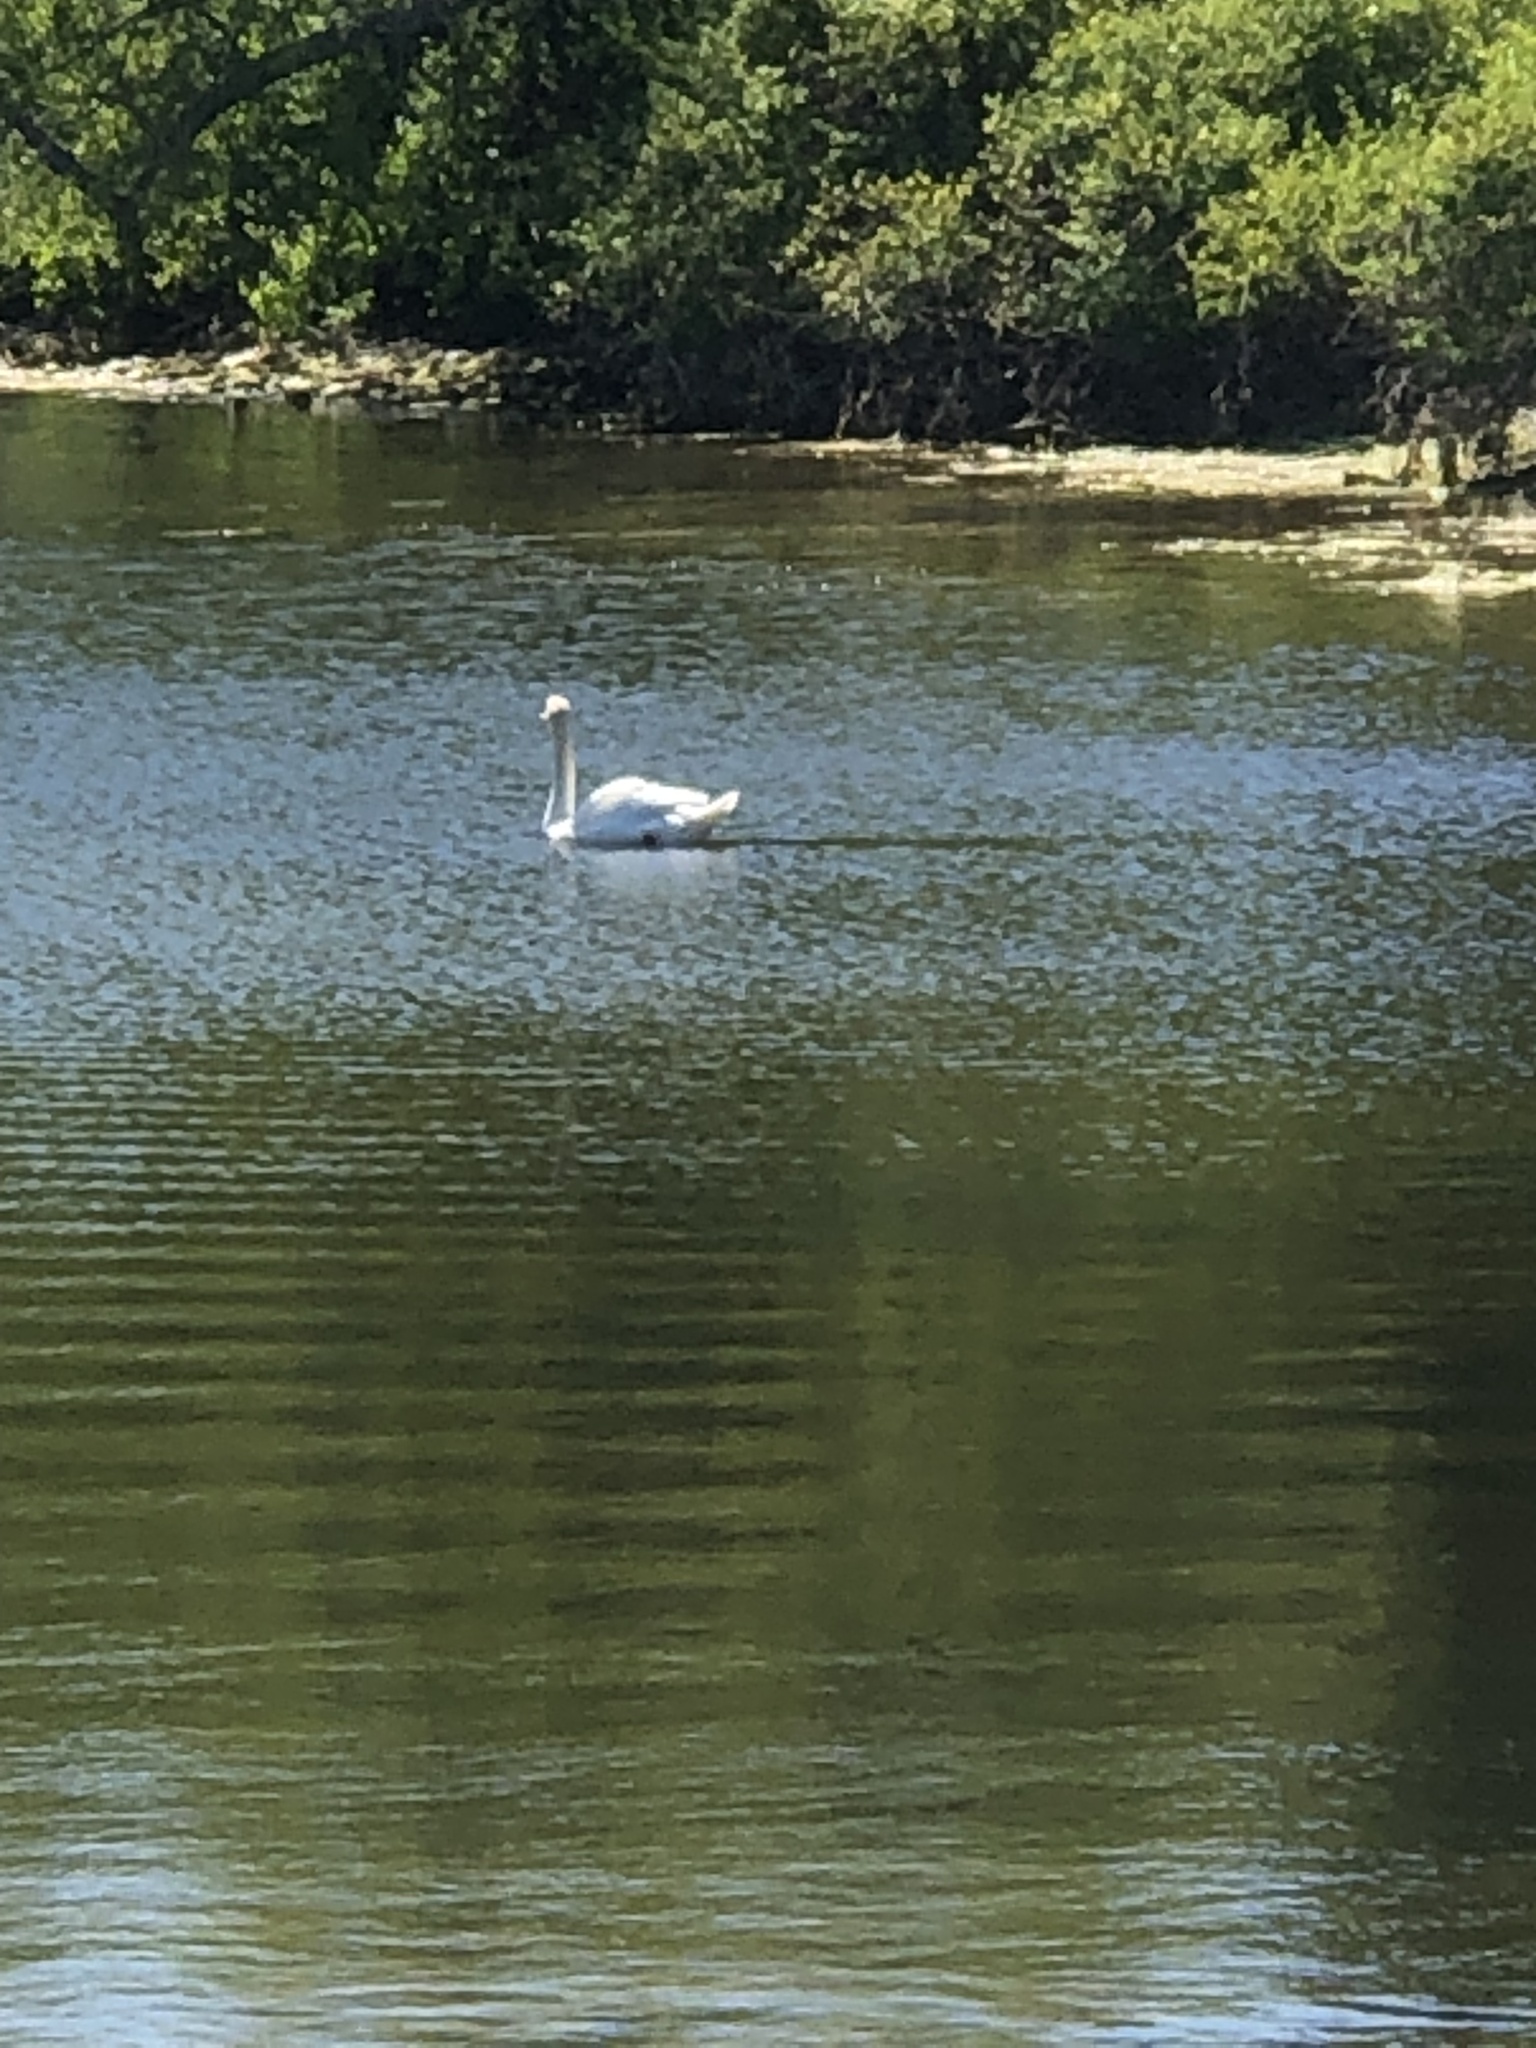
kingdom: Animalia
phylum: Chordata
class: Aves
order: Anseriformes
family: Anatidae
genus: Cygnus
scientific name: Cygnus olor
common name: Mute swan
